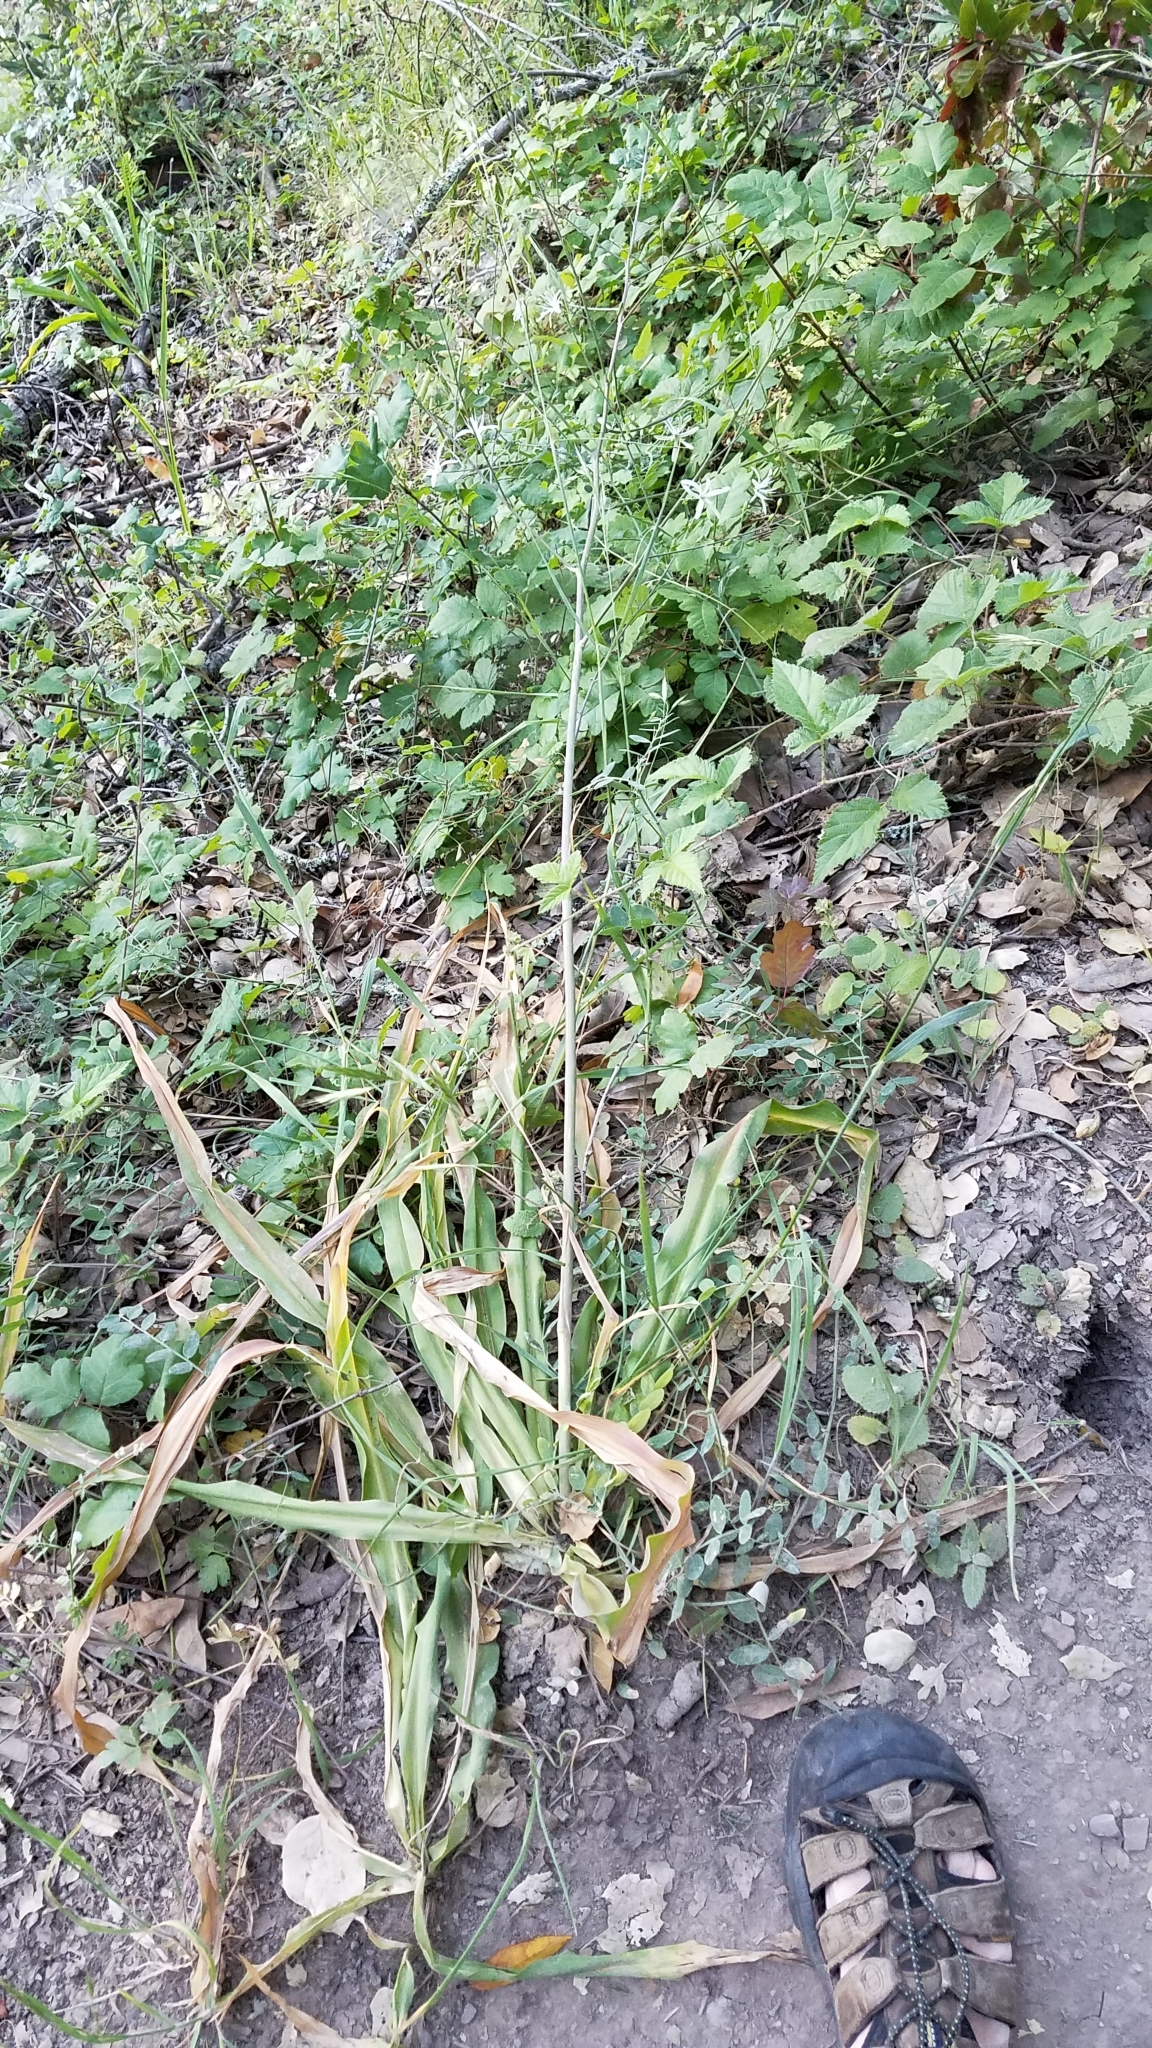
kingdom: Plantae
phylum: Tracheophyta
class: Liliopsida
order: Asparagales
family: Asparagaceae
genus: Chlorogalum
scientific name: Chlorogalum pomeridianum
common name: Amole
